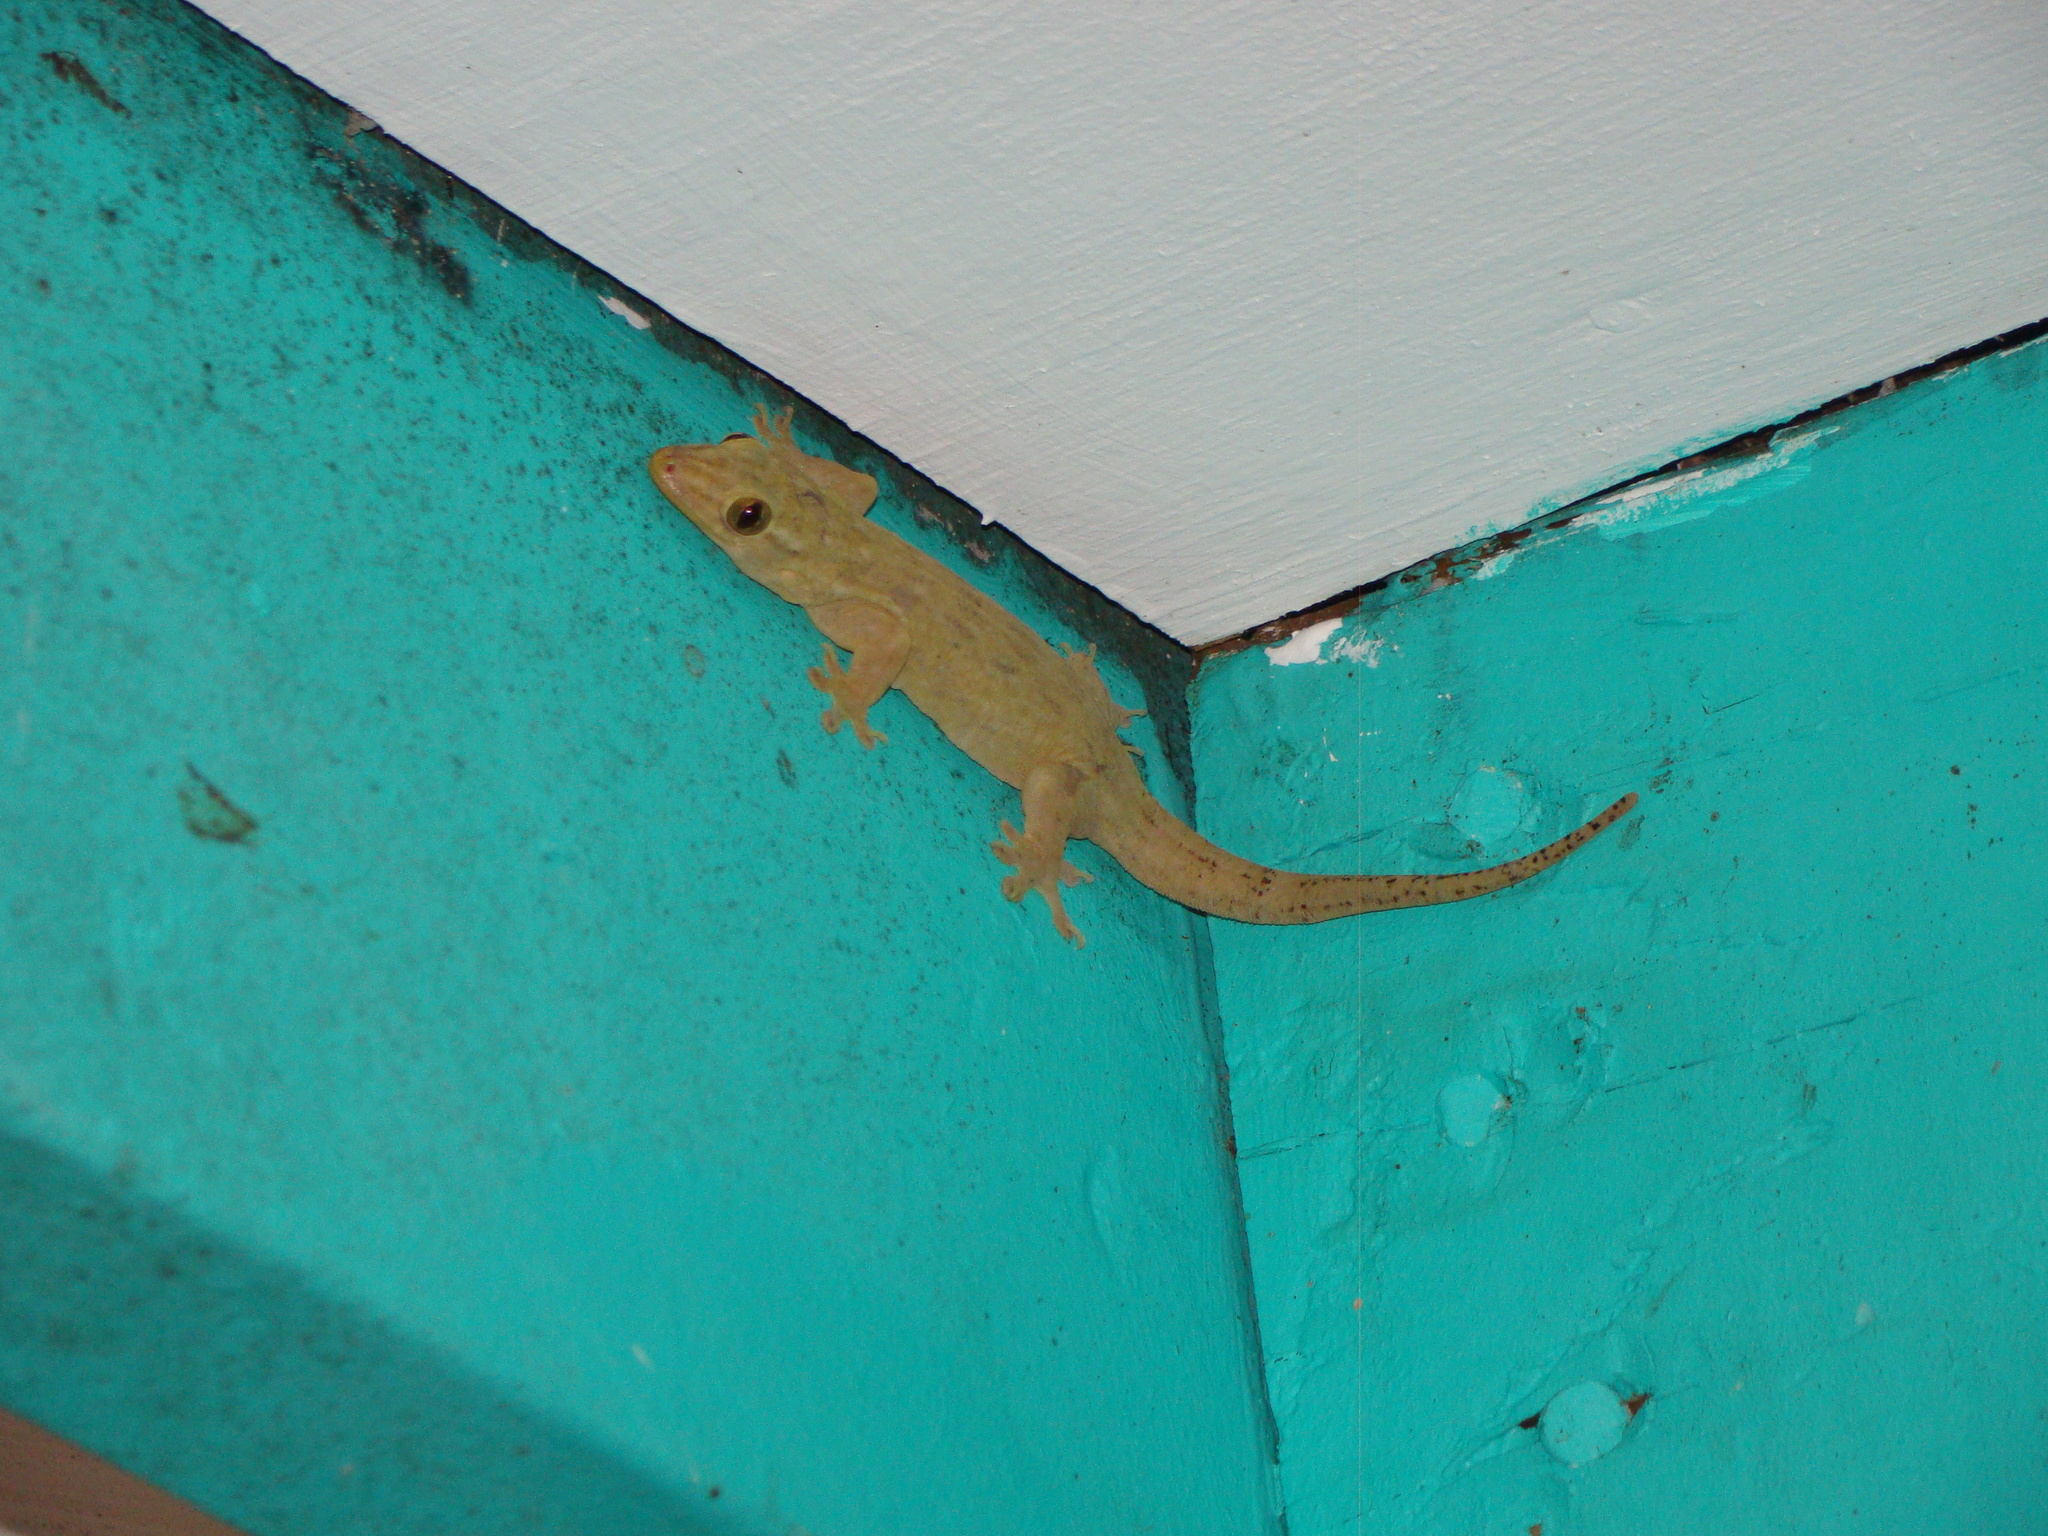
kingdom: Animalia
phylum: Chordata
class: Squamata
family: Gekkonidae
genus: Gehyra
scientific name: Gehyra oceanica
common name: Pacific dtella
